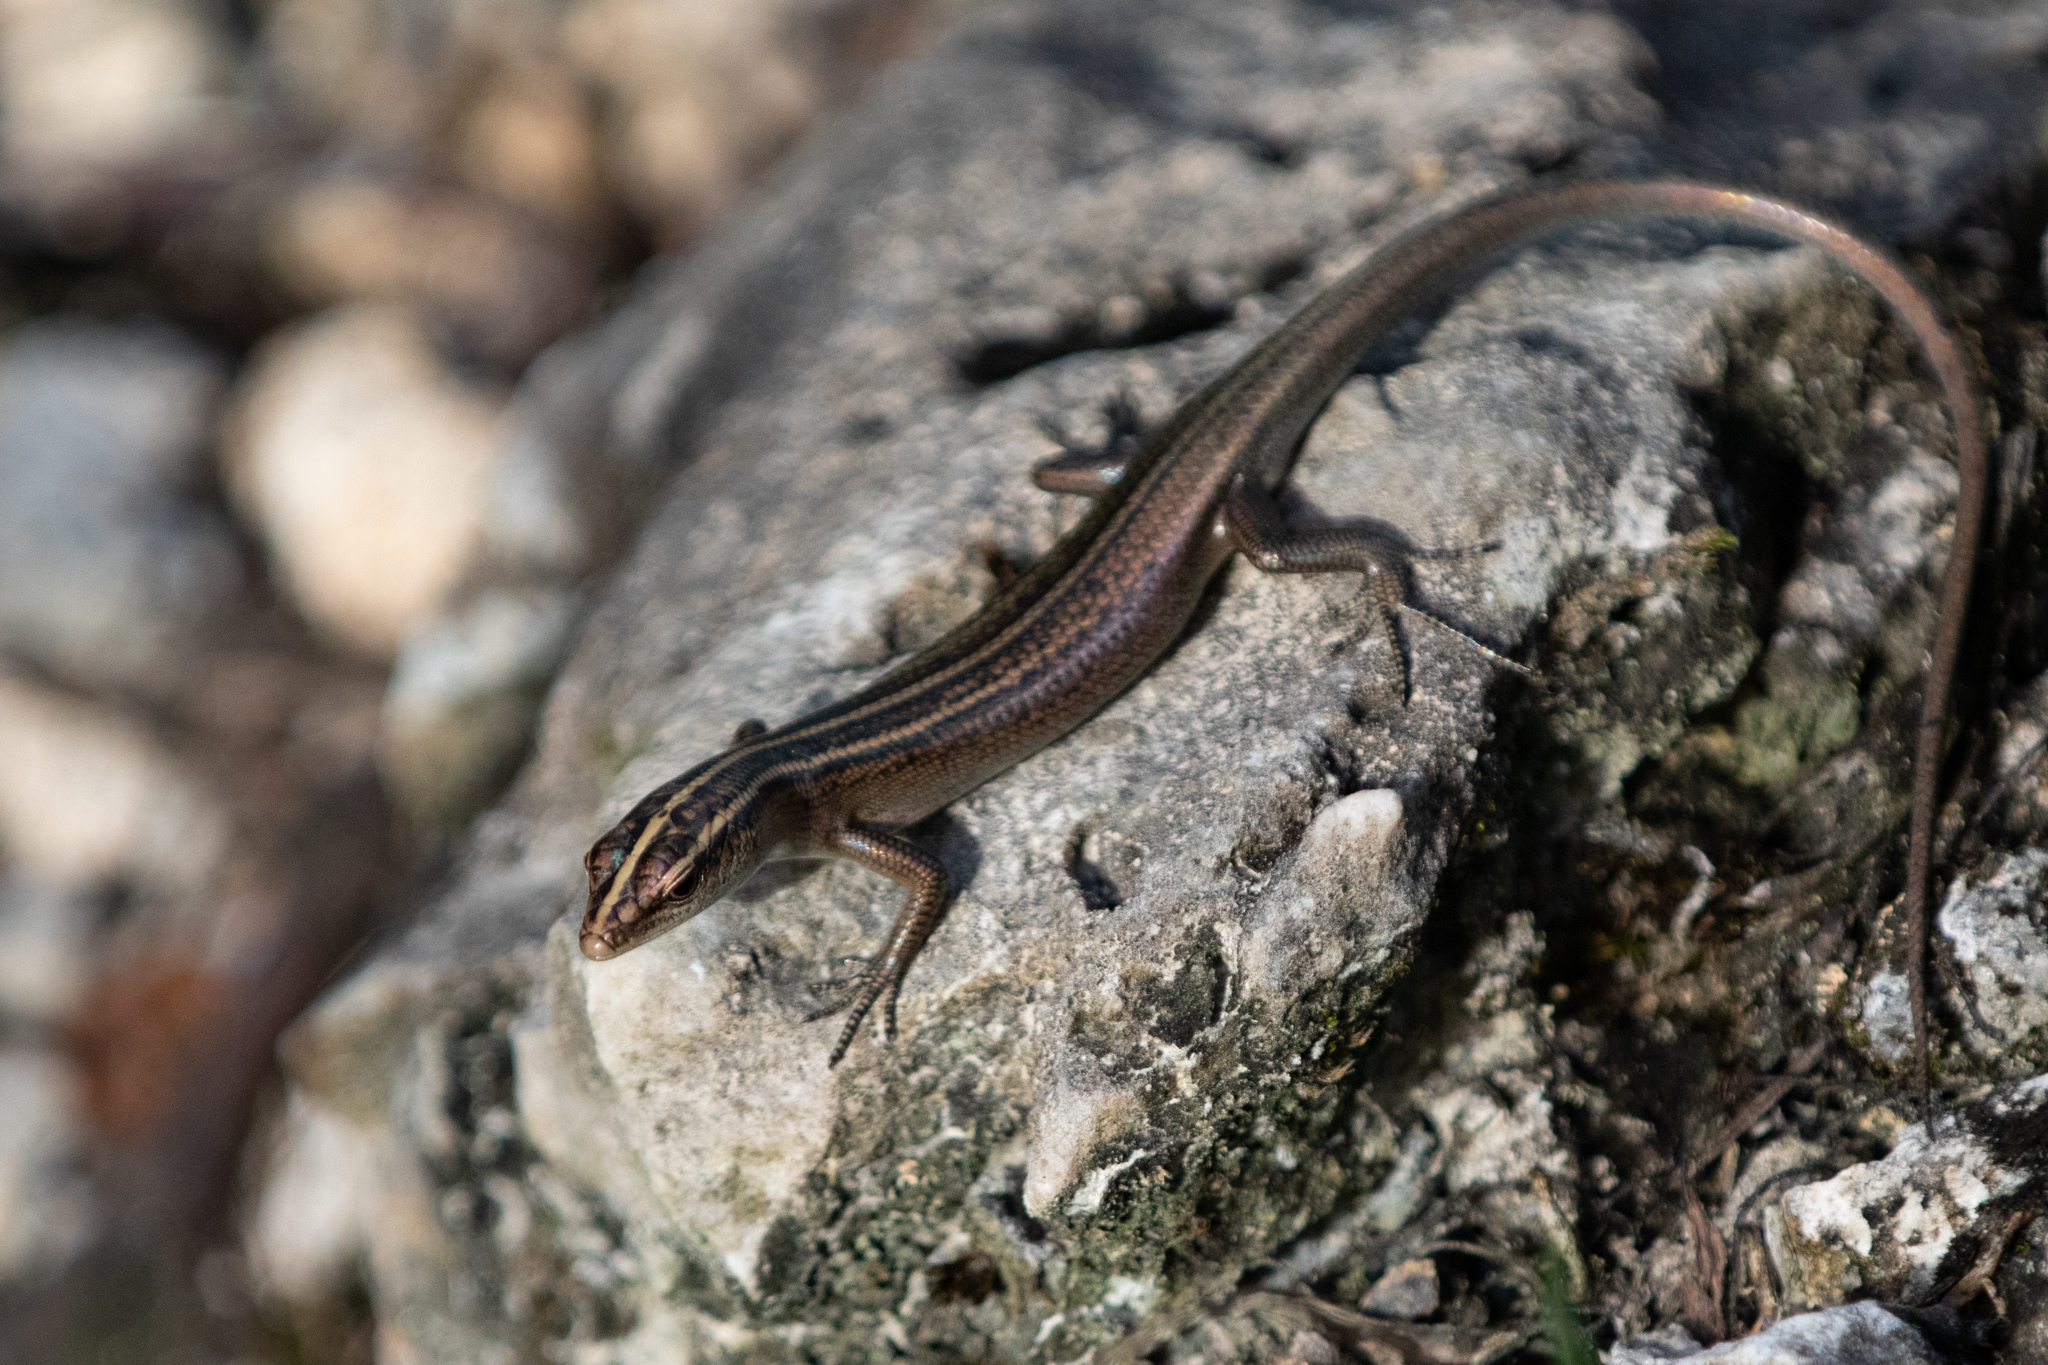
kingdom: Animalia
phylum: Chordata
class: Squamata
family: Scincidae
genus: Emoia
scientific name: Emoia cyanura
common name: Copper-tailed skink
